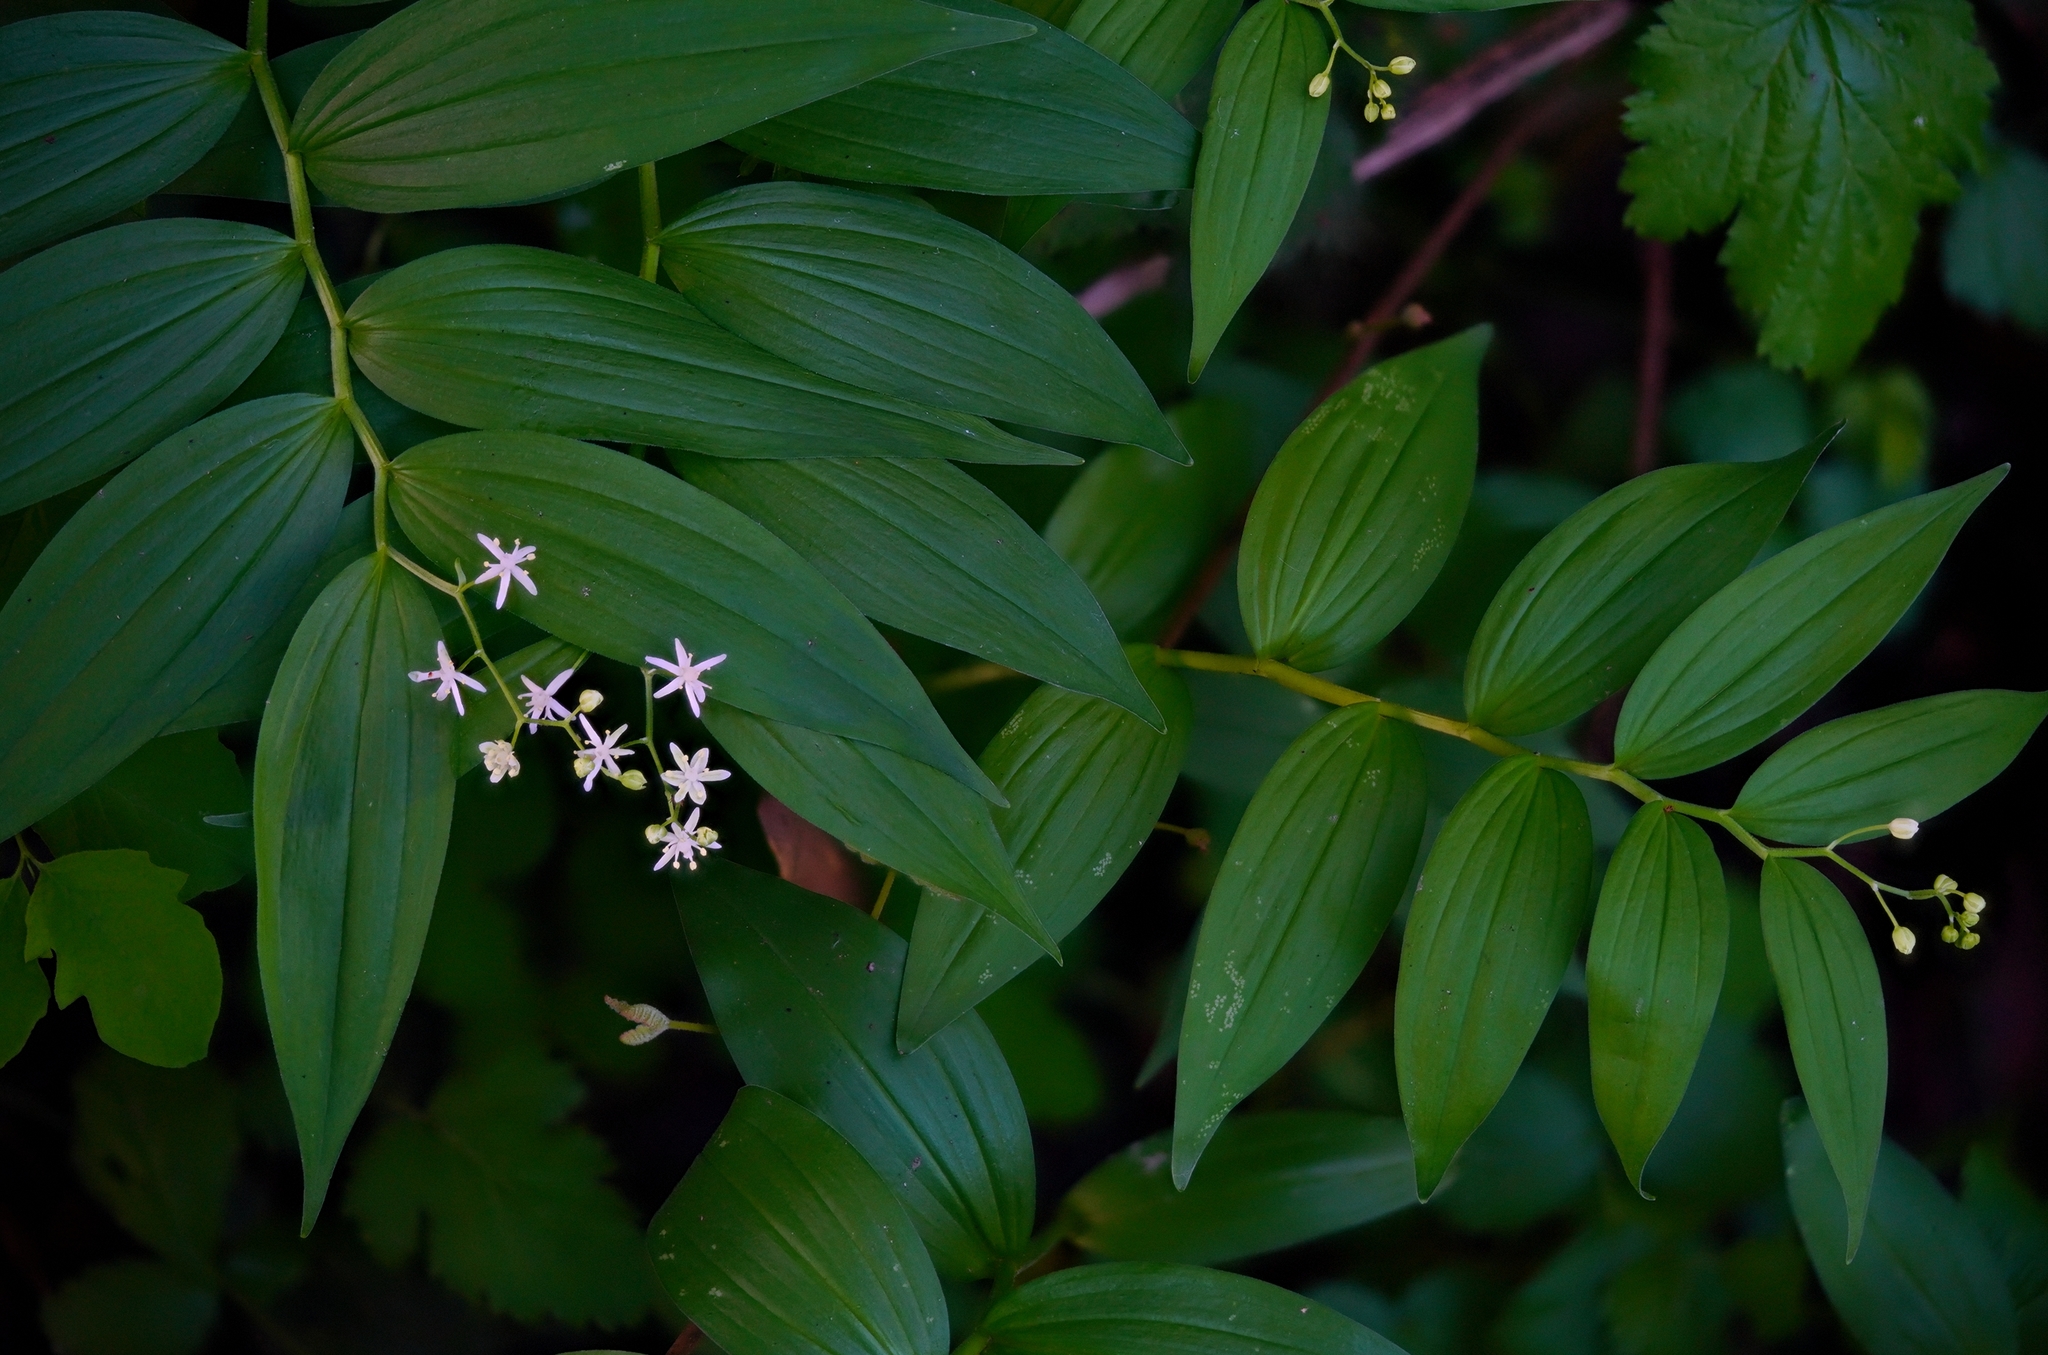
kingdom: Plantae
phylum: Tracheophyta
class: Liliopsida
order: Asparagales
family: Asparagaceae
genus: Maianthemum
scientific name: Maianthemum stellatum
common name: Little false solomon's seal
